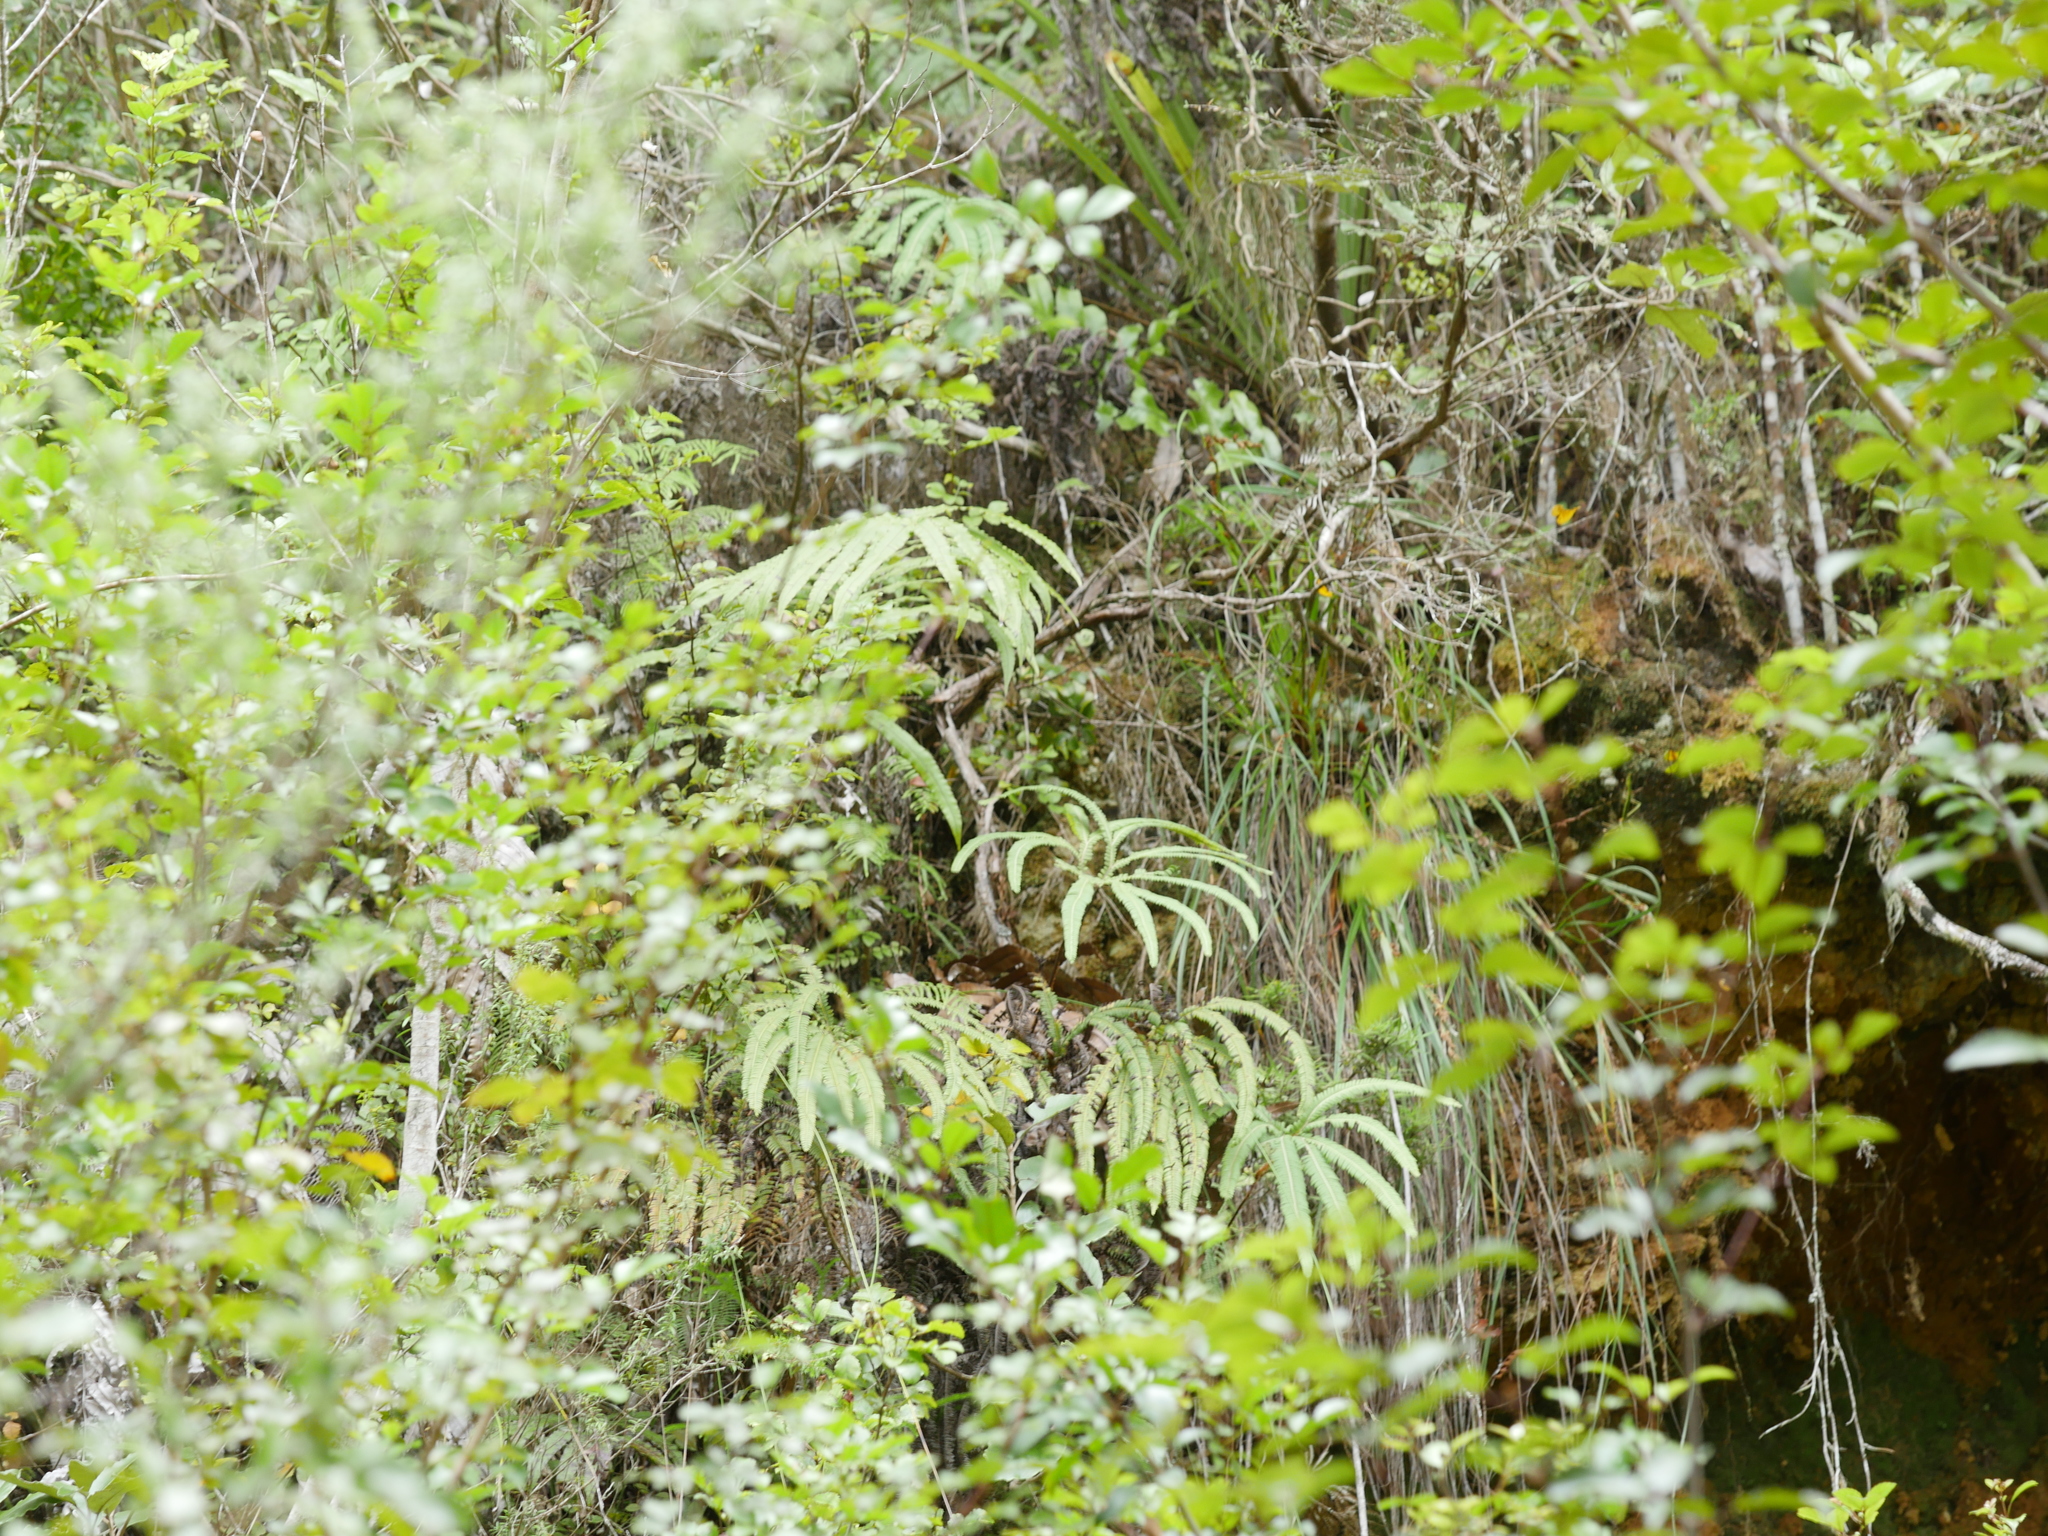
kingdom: Plantae
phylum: Tracheophyta
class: Polypodiopsida
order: Gleicheniales
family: Gleicheniaceae
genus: Sticherus
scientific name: Sticherus cunninghamii
